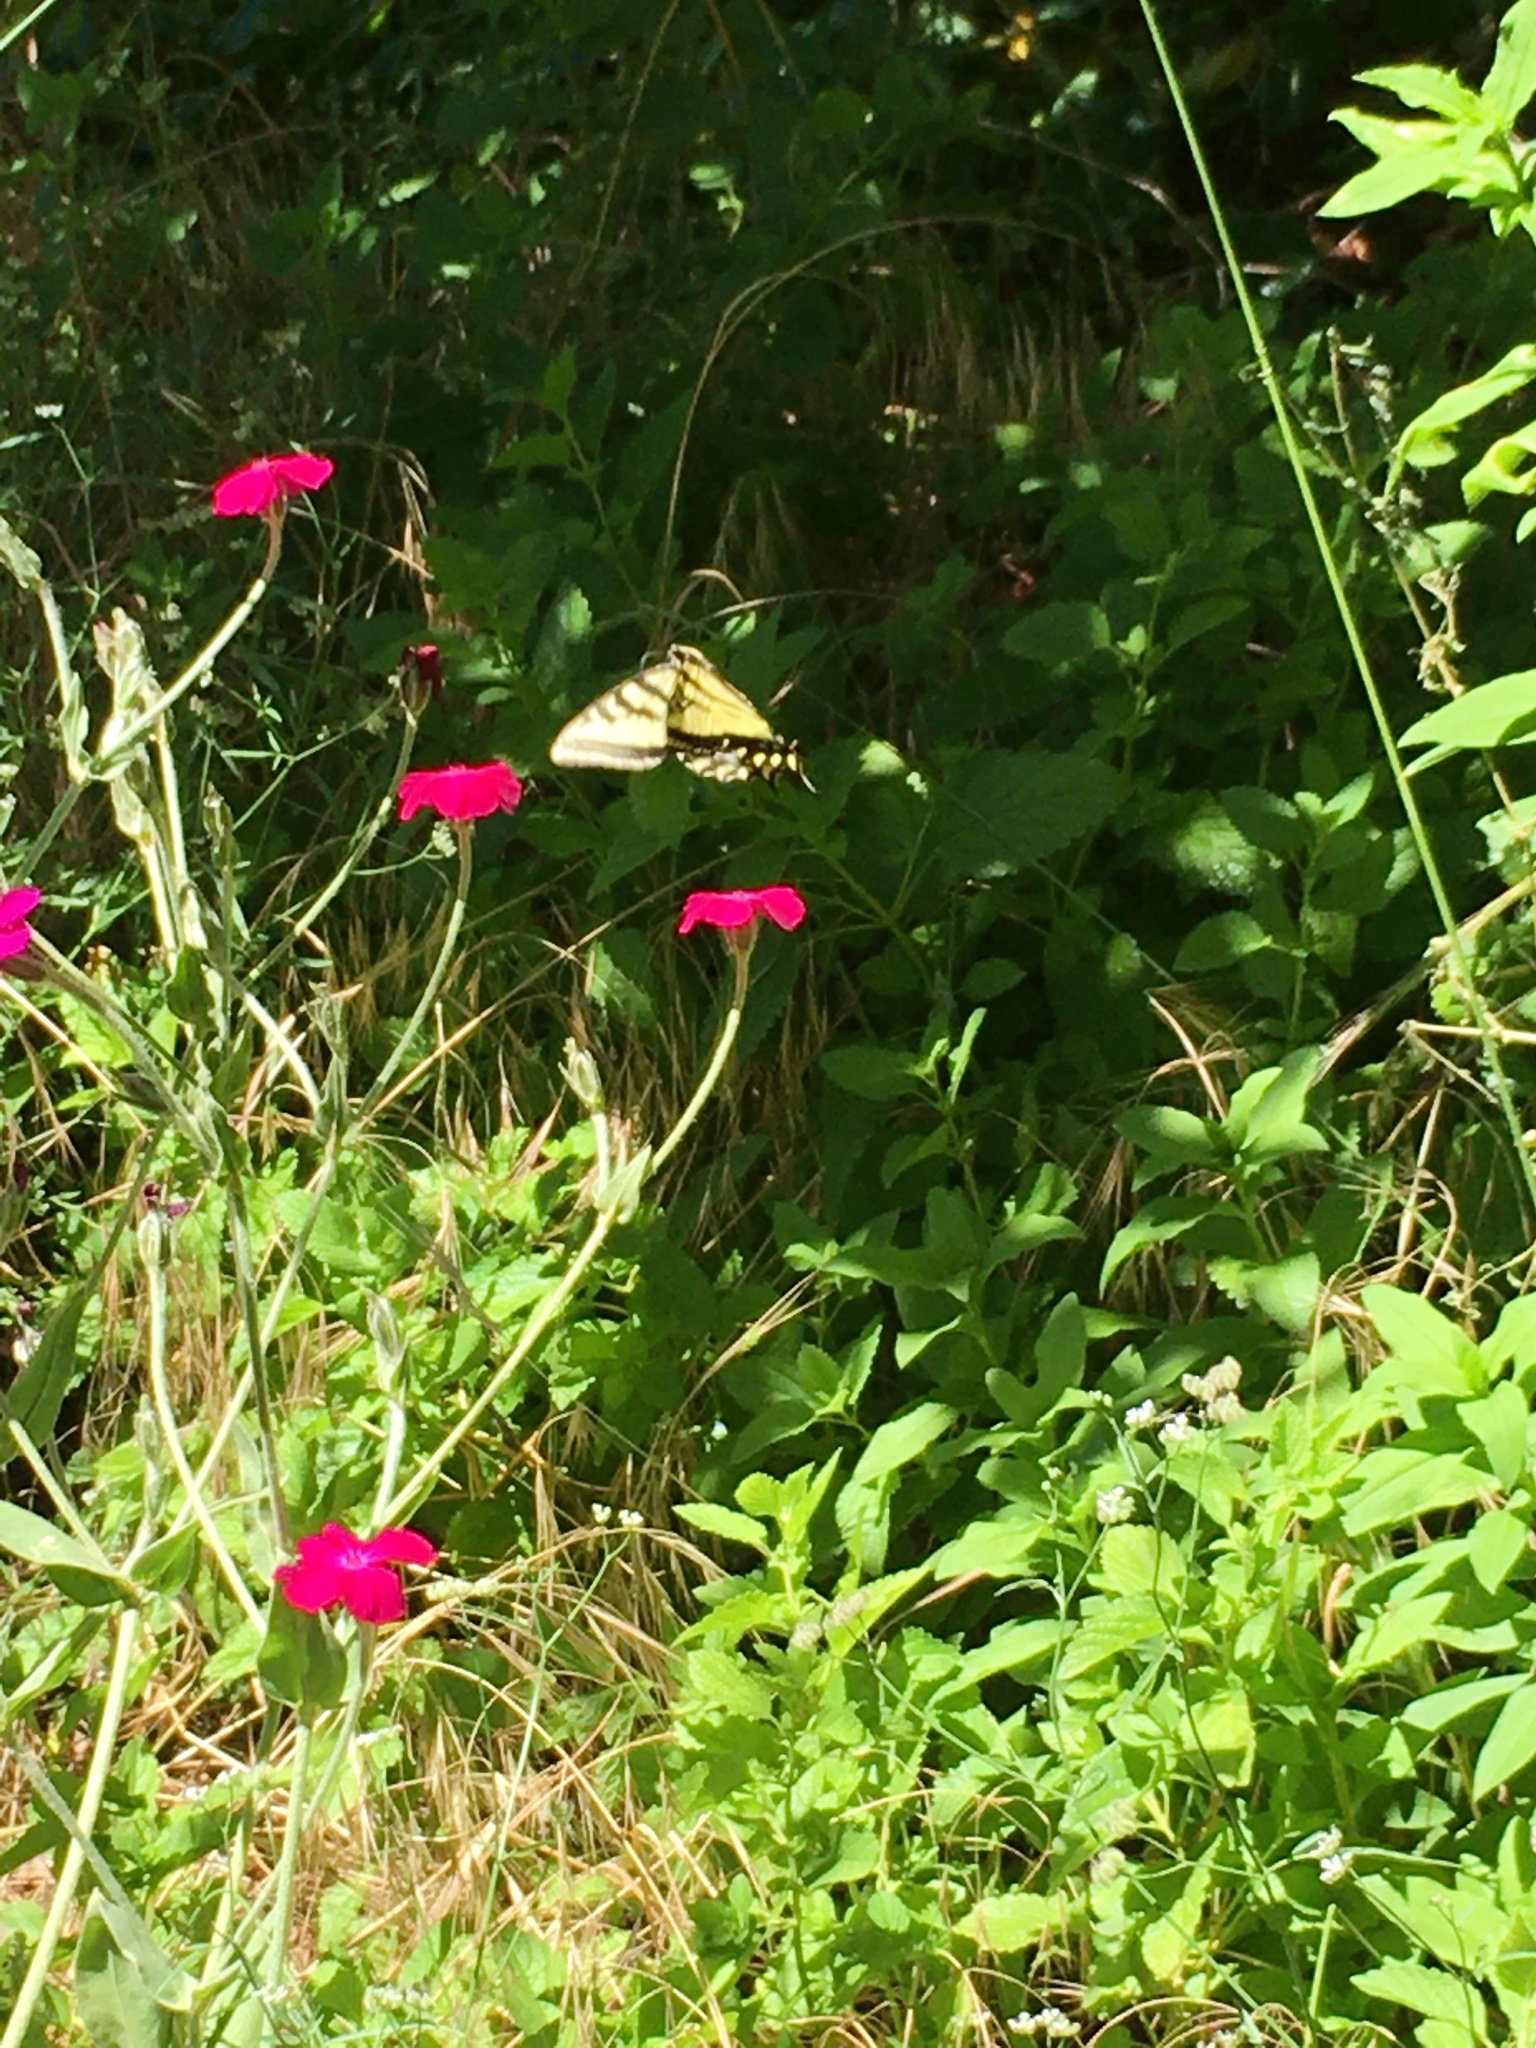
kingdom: Animalia
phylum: Arthropoda
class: Insecta
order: Lepidoptera
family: Papilionidae
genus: Papilio
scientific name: Papilio rutulus
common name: Western tiger swallowtail
